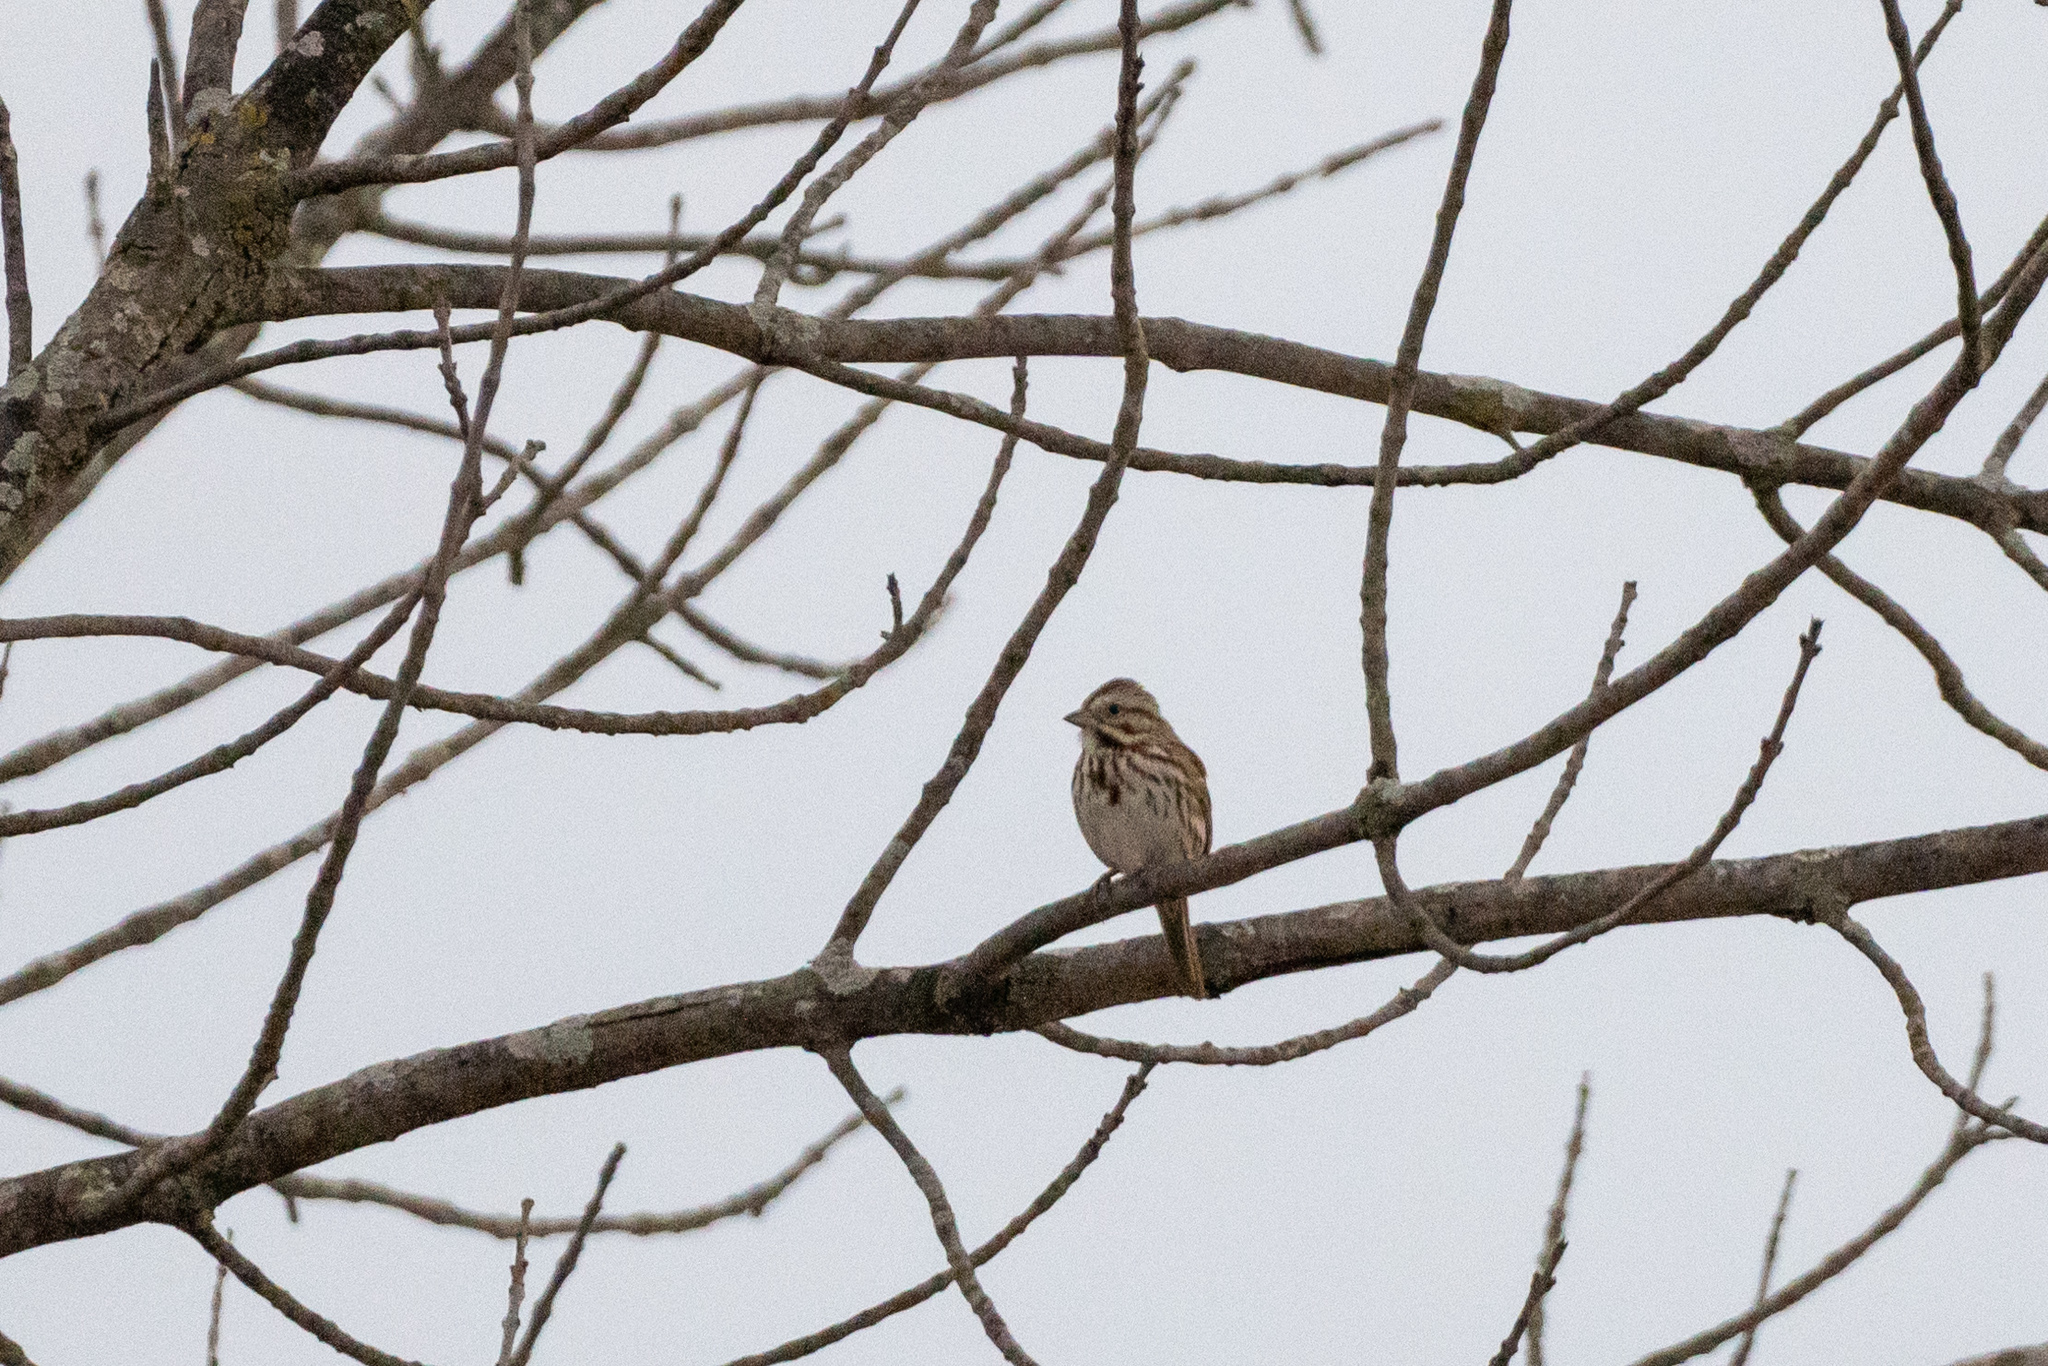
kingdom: Animalia
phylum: Chordata
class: Aves
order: Passeriformes
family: Passerellidae
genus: Melospiza
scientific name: Melospiza melodia
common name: Song sparrow
